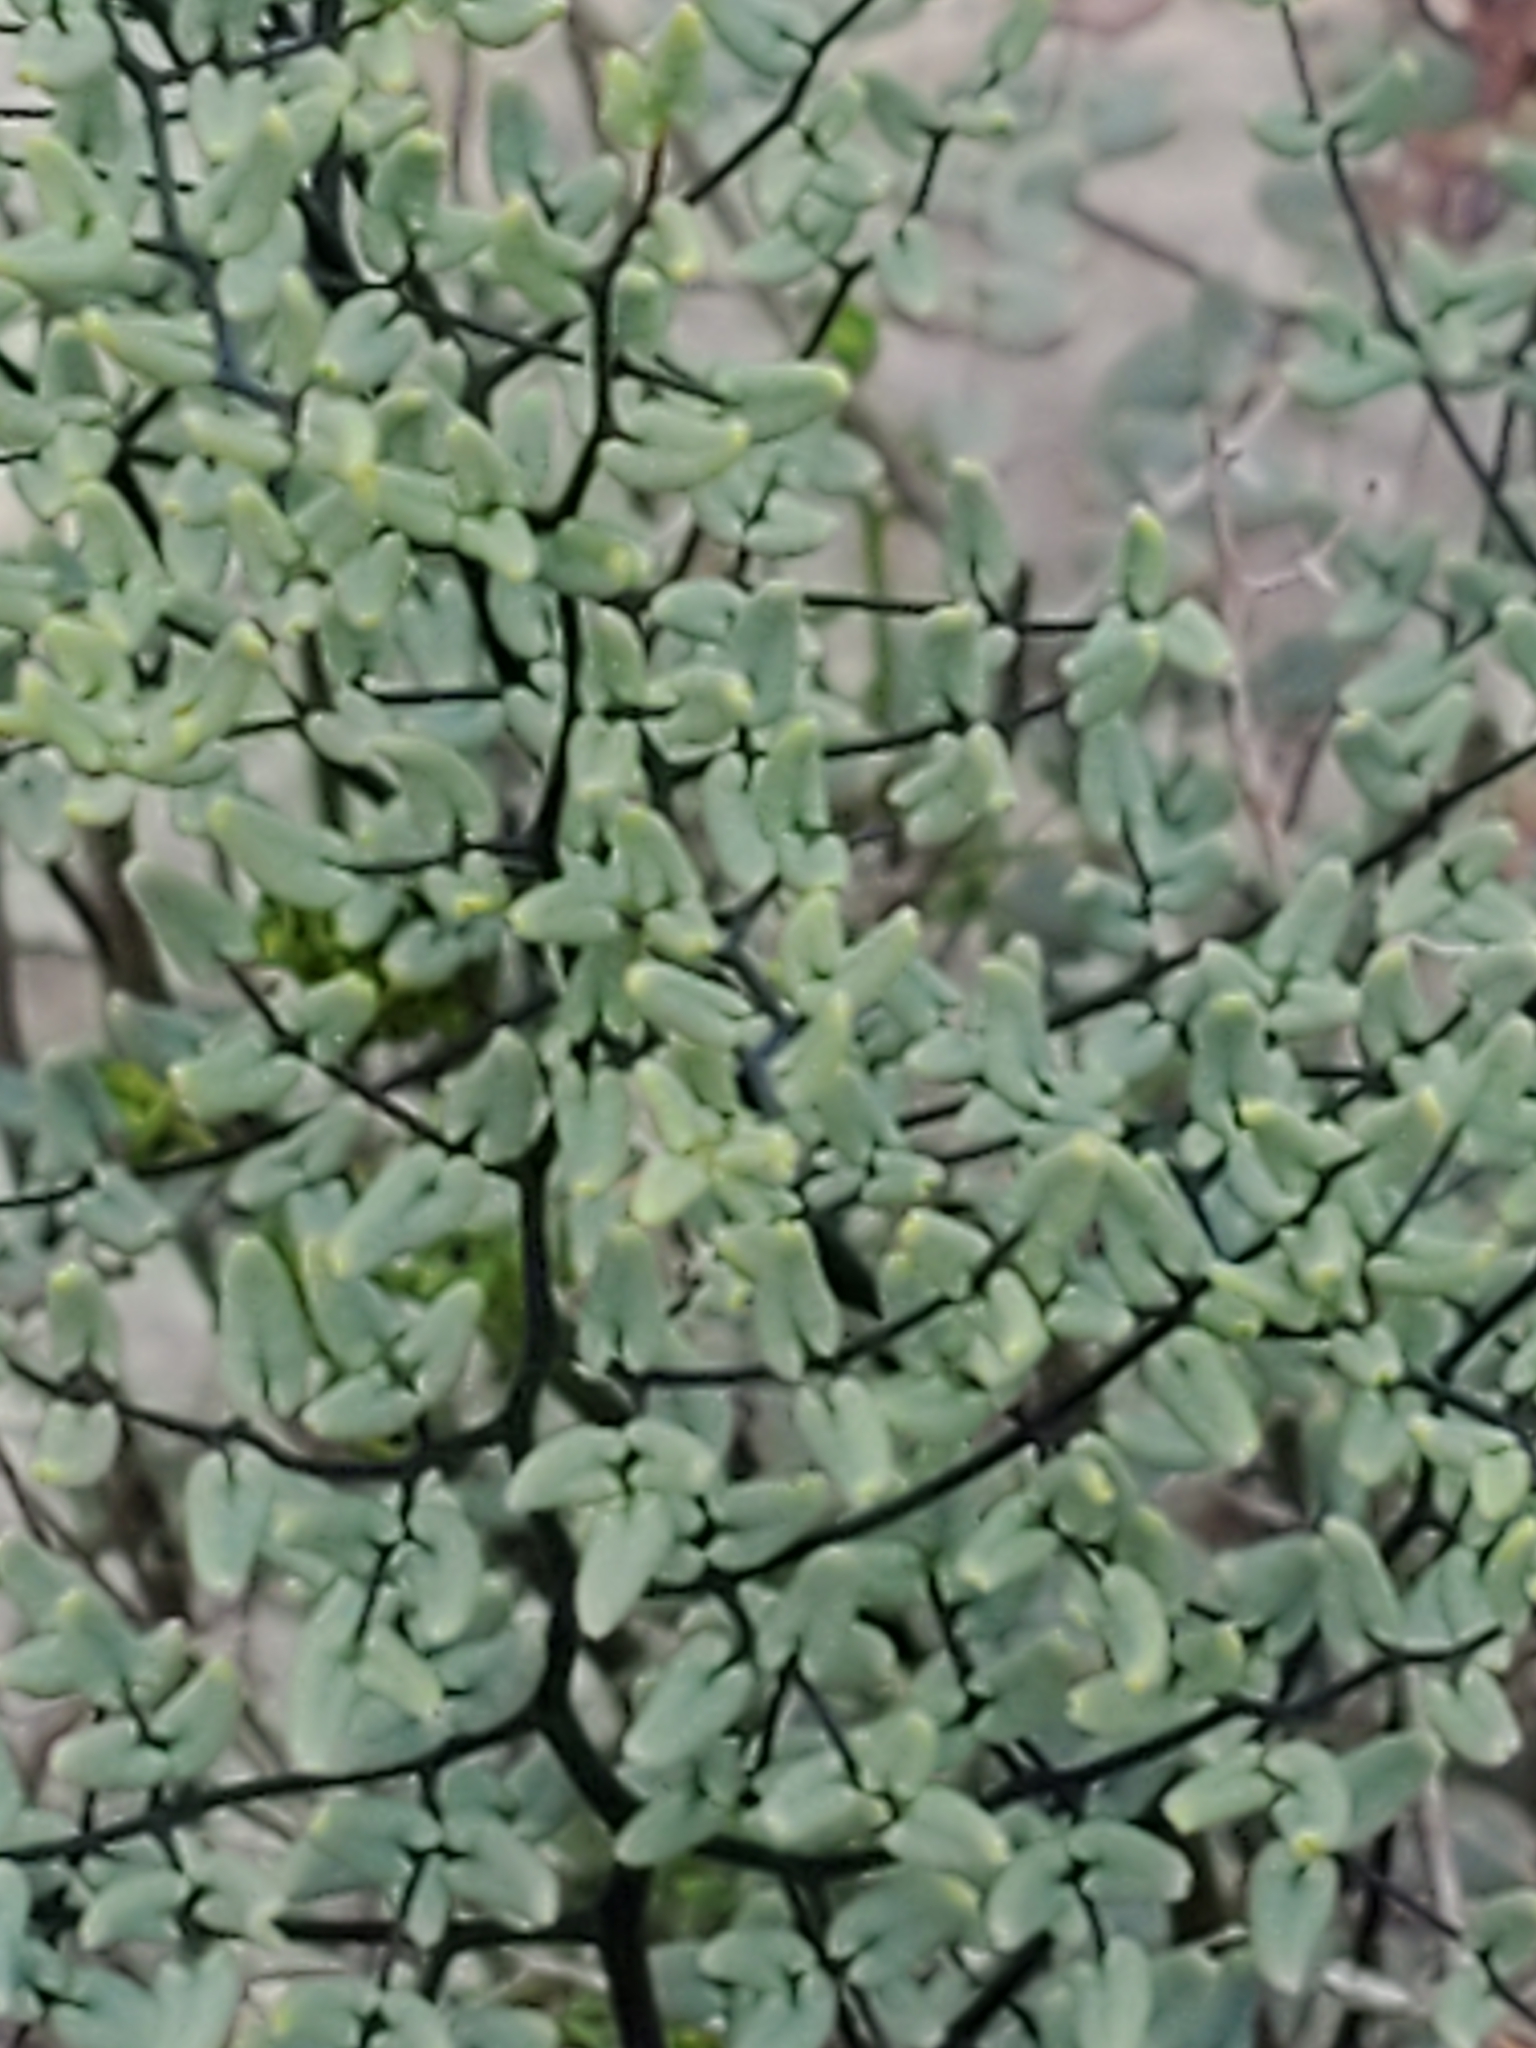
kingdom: Plantae
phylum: Tracheophyta
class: Polypodiopsida
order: Polypodiales
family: Pteridaceae
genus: Argyrochosma
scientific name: Argyrochosma microphylla
